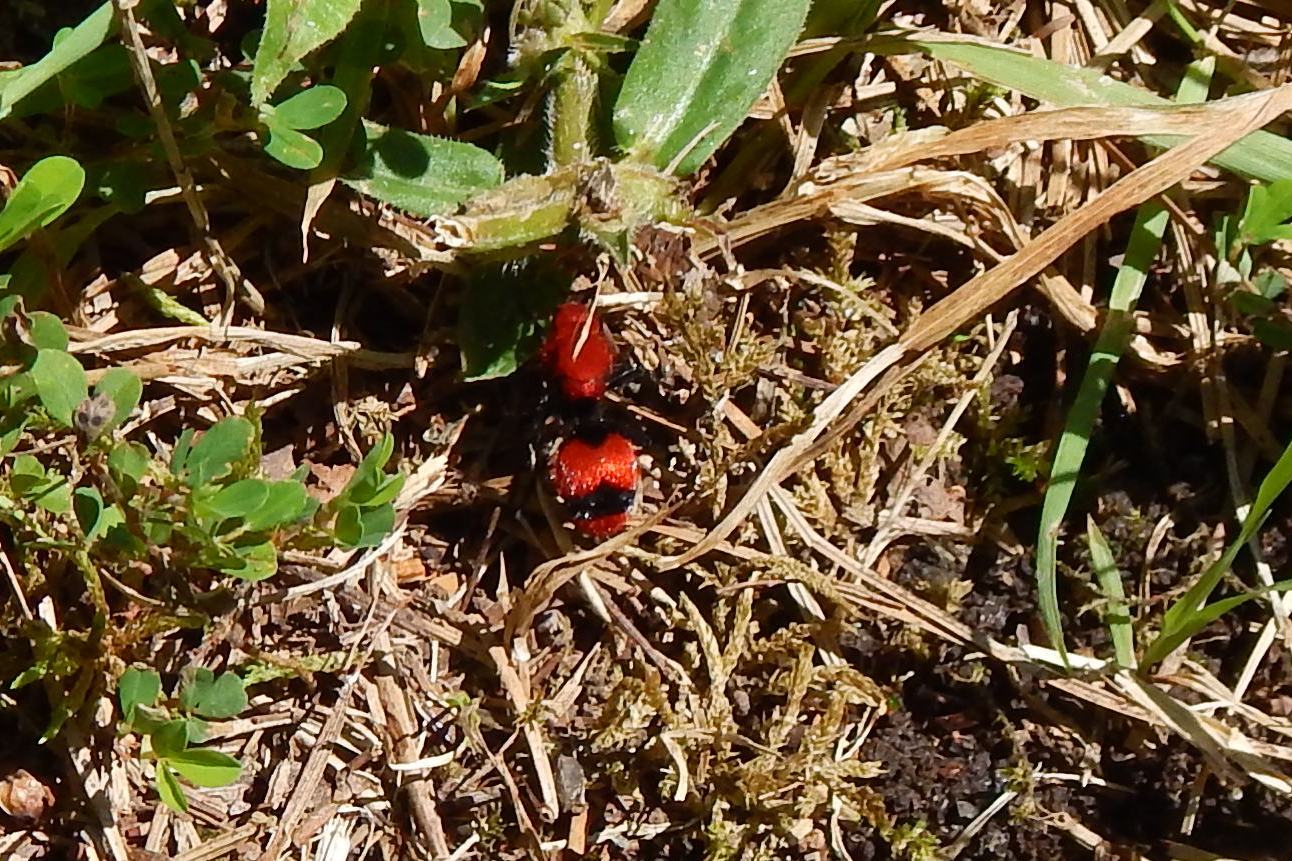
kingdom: Animalia
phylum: Arthropoda
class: Insecta
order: Hymenoptera
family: Mutillidae
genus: Dasymutilla
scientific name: Dasymutilla occidentalis
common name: Common eastern velvet ant
